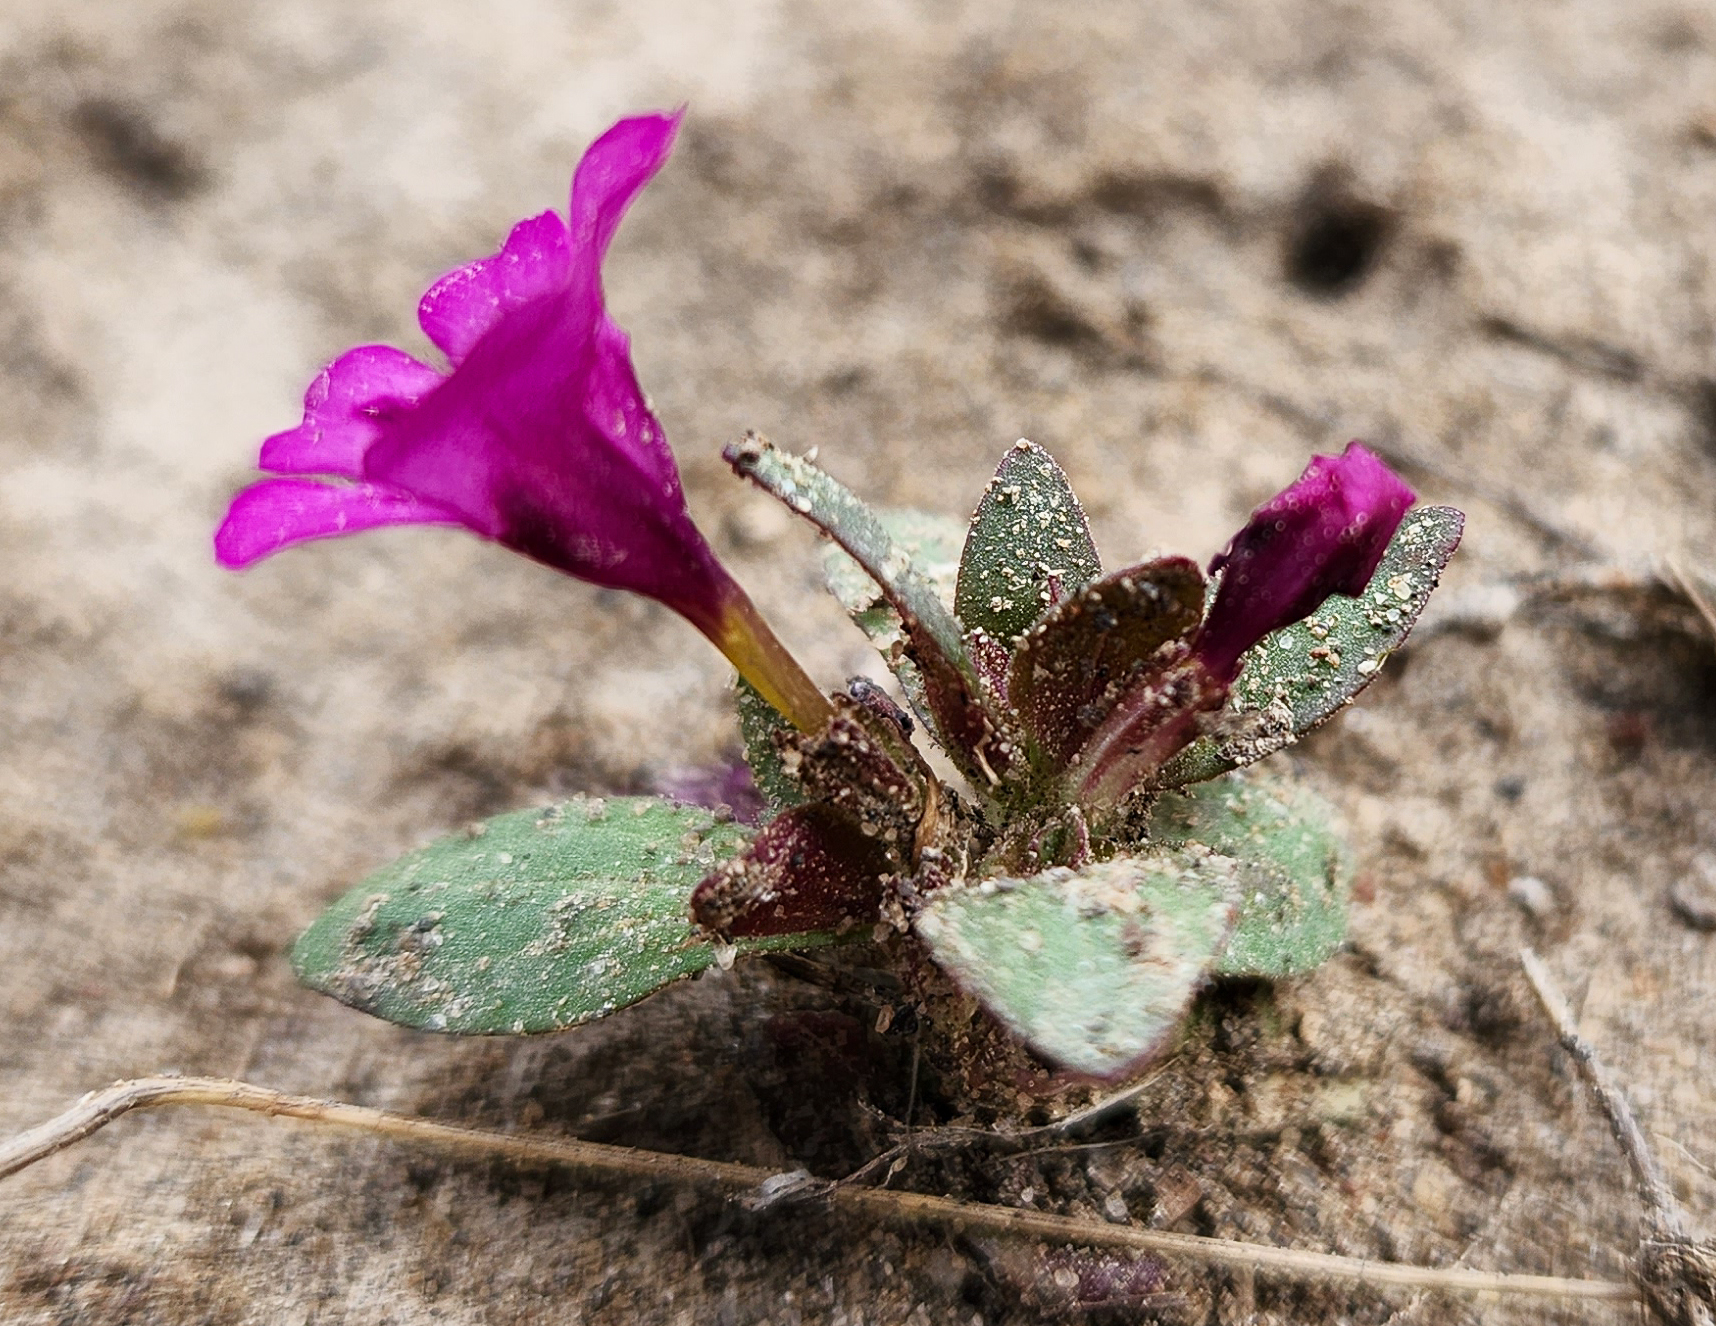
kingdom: Plantae
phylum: Tracheophyta
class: Magnoliopsida
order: Lamiales
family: Phrymaceae
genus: Diplacus
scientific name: Diplacus nanus
